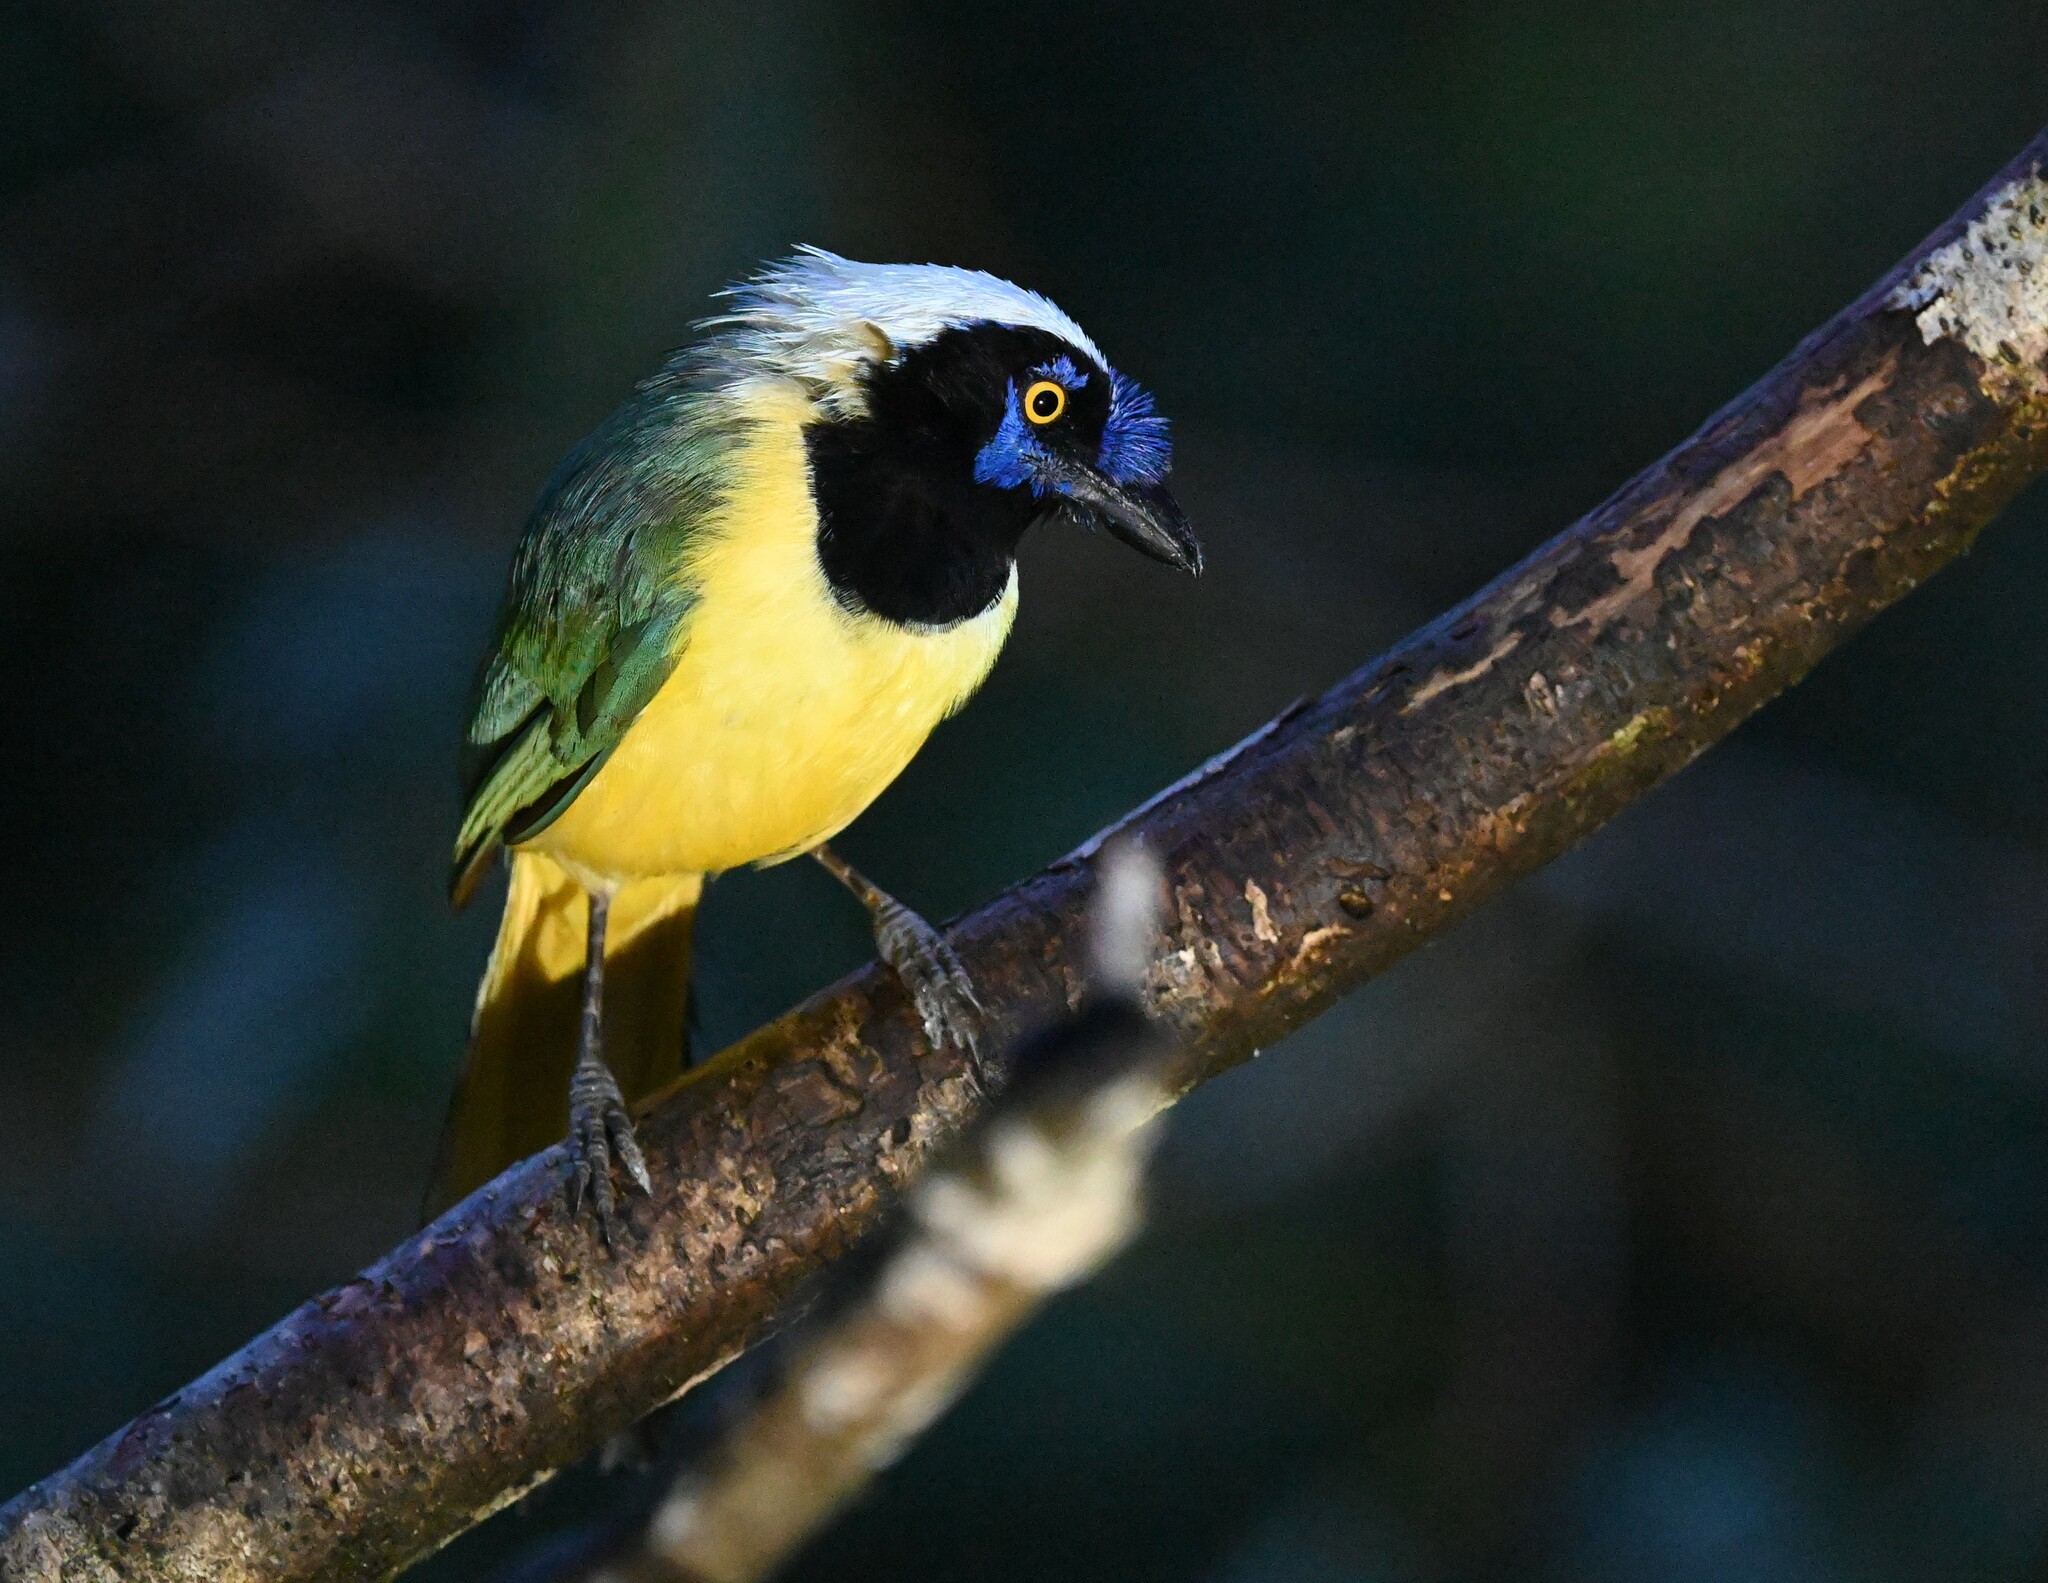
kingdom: Animalia
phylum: Chordata
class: Aves
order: Passeriformes
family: Corvidae
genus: Cyanocorax
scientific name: Cyanocorax yncas
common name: Green jay
